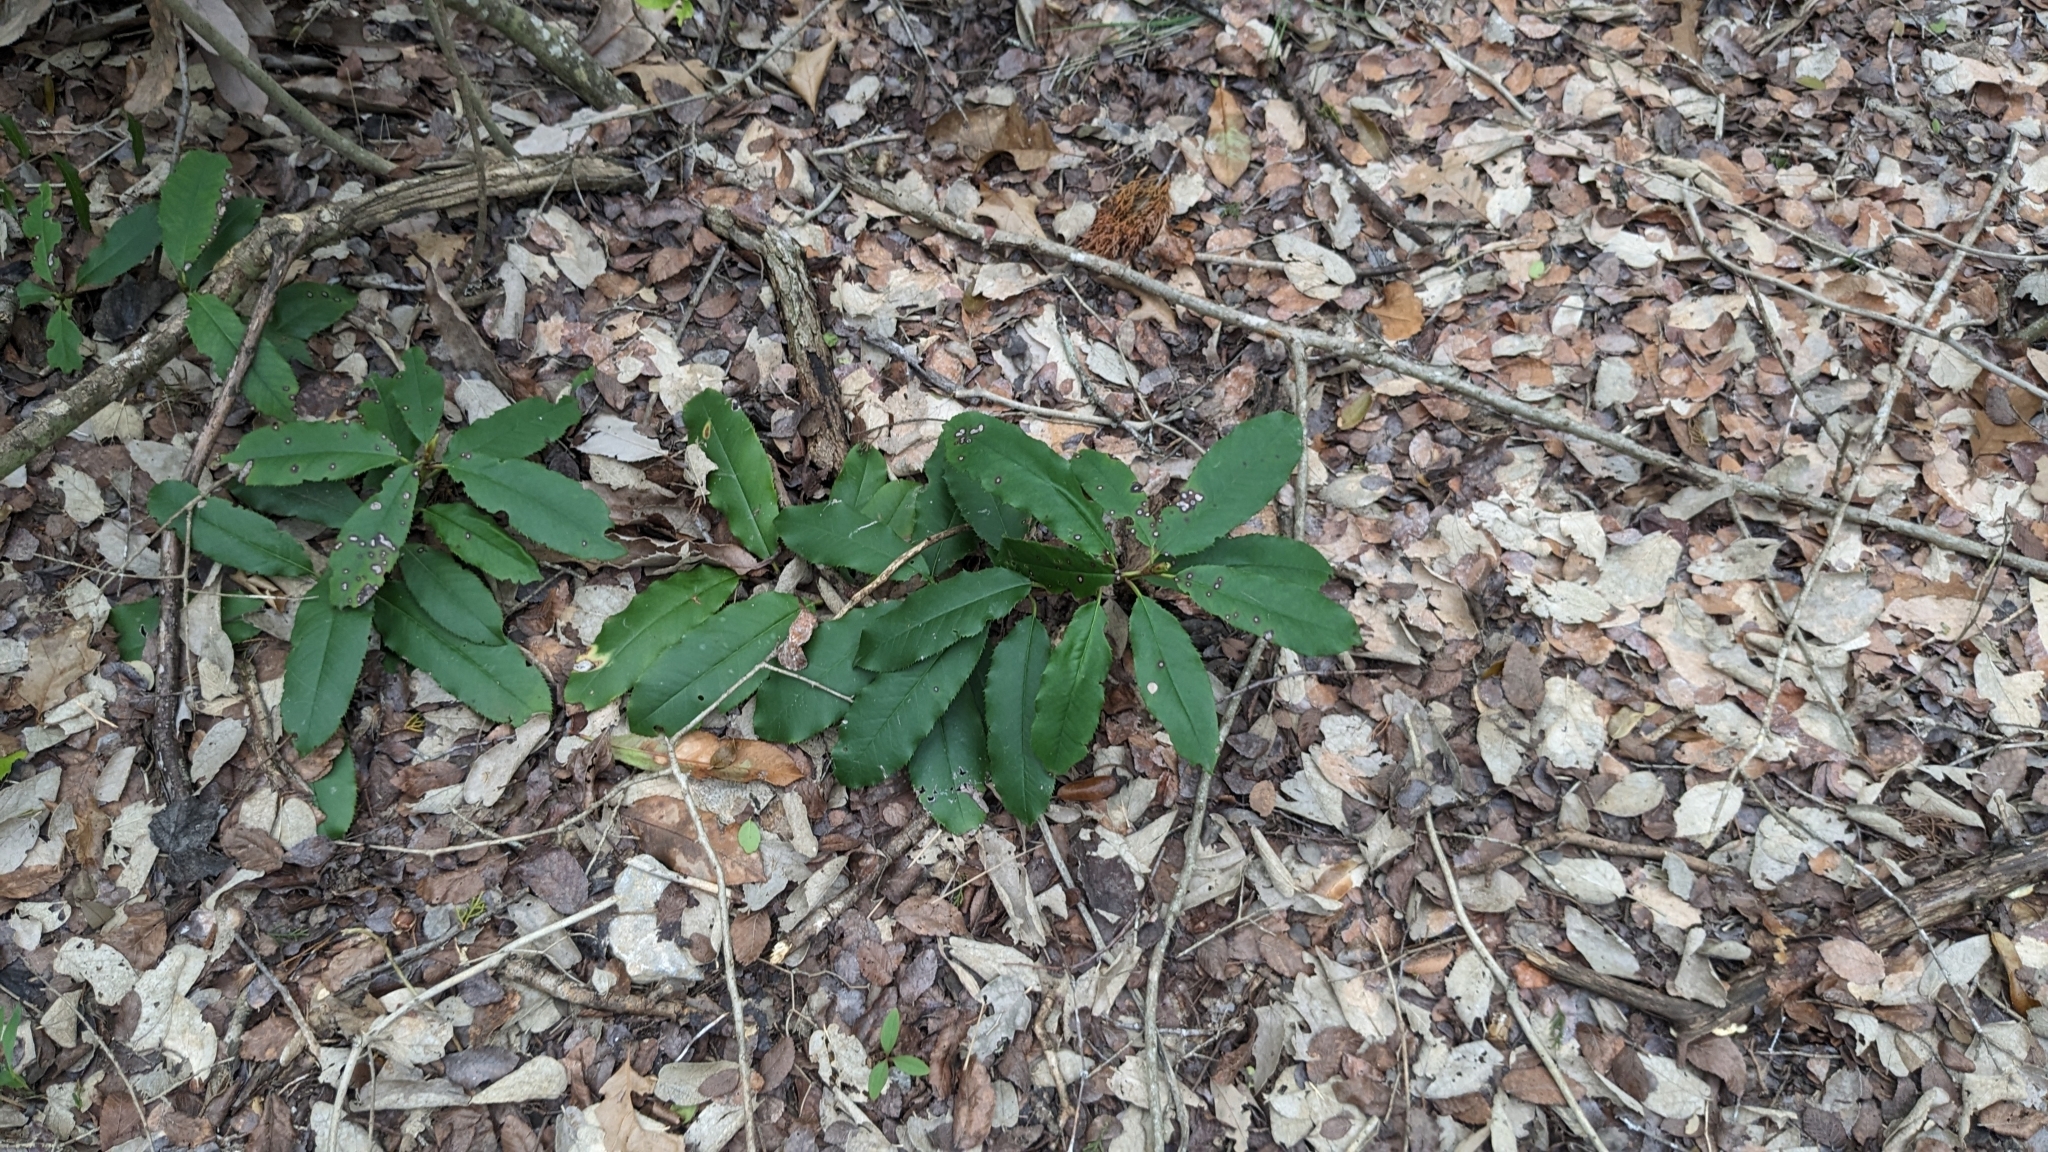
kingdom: Plantae
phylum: Tracheophyta
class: Magnoliopsida
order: Rosales
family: Rosaceae
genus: Photinia
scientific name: Photinia serratifolia
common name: Taiwanese photinia
